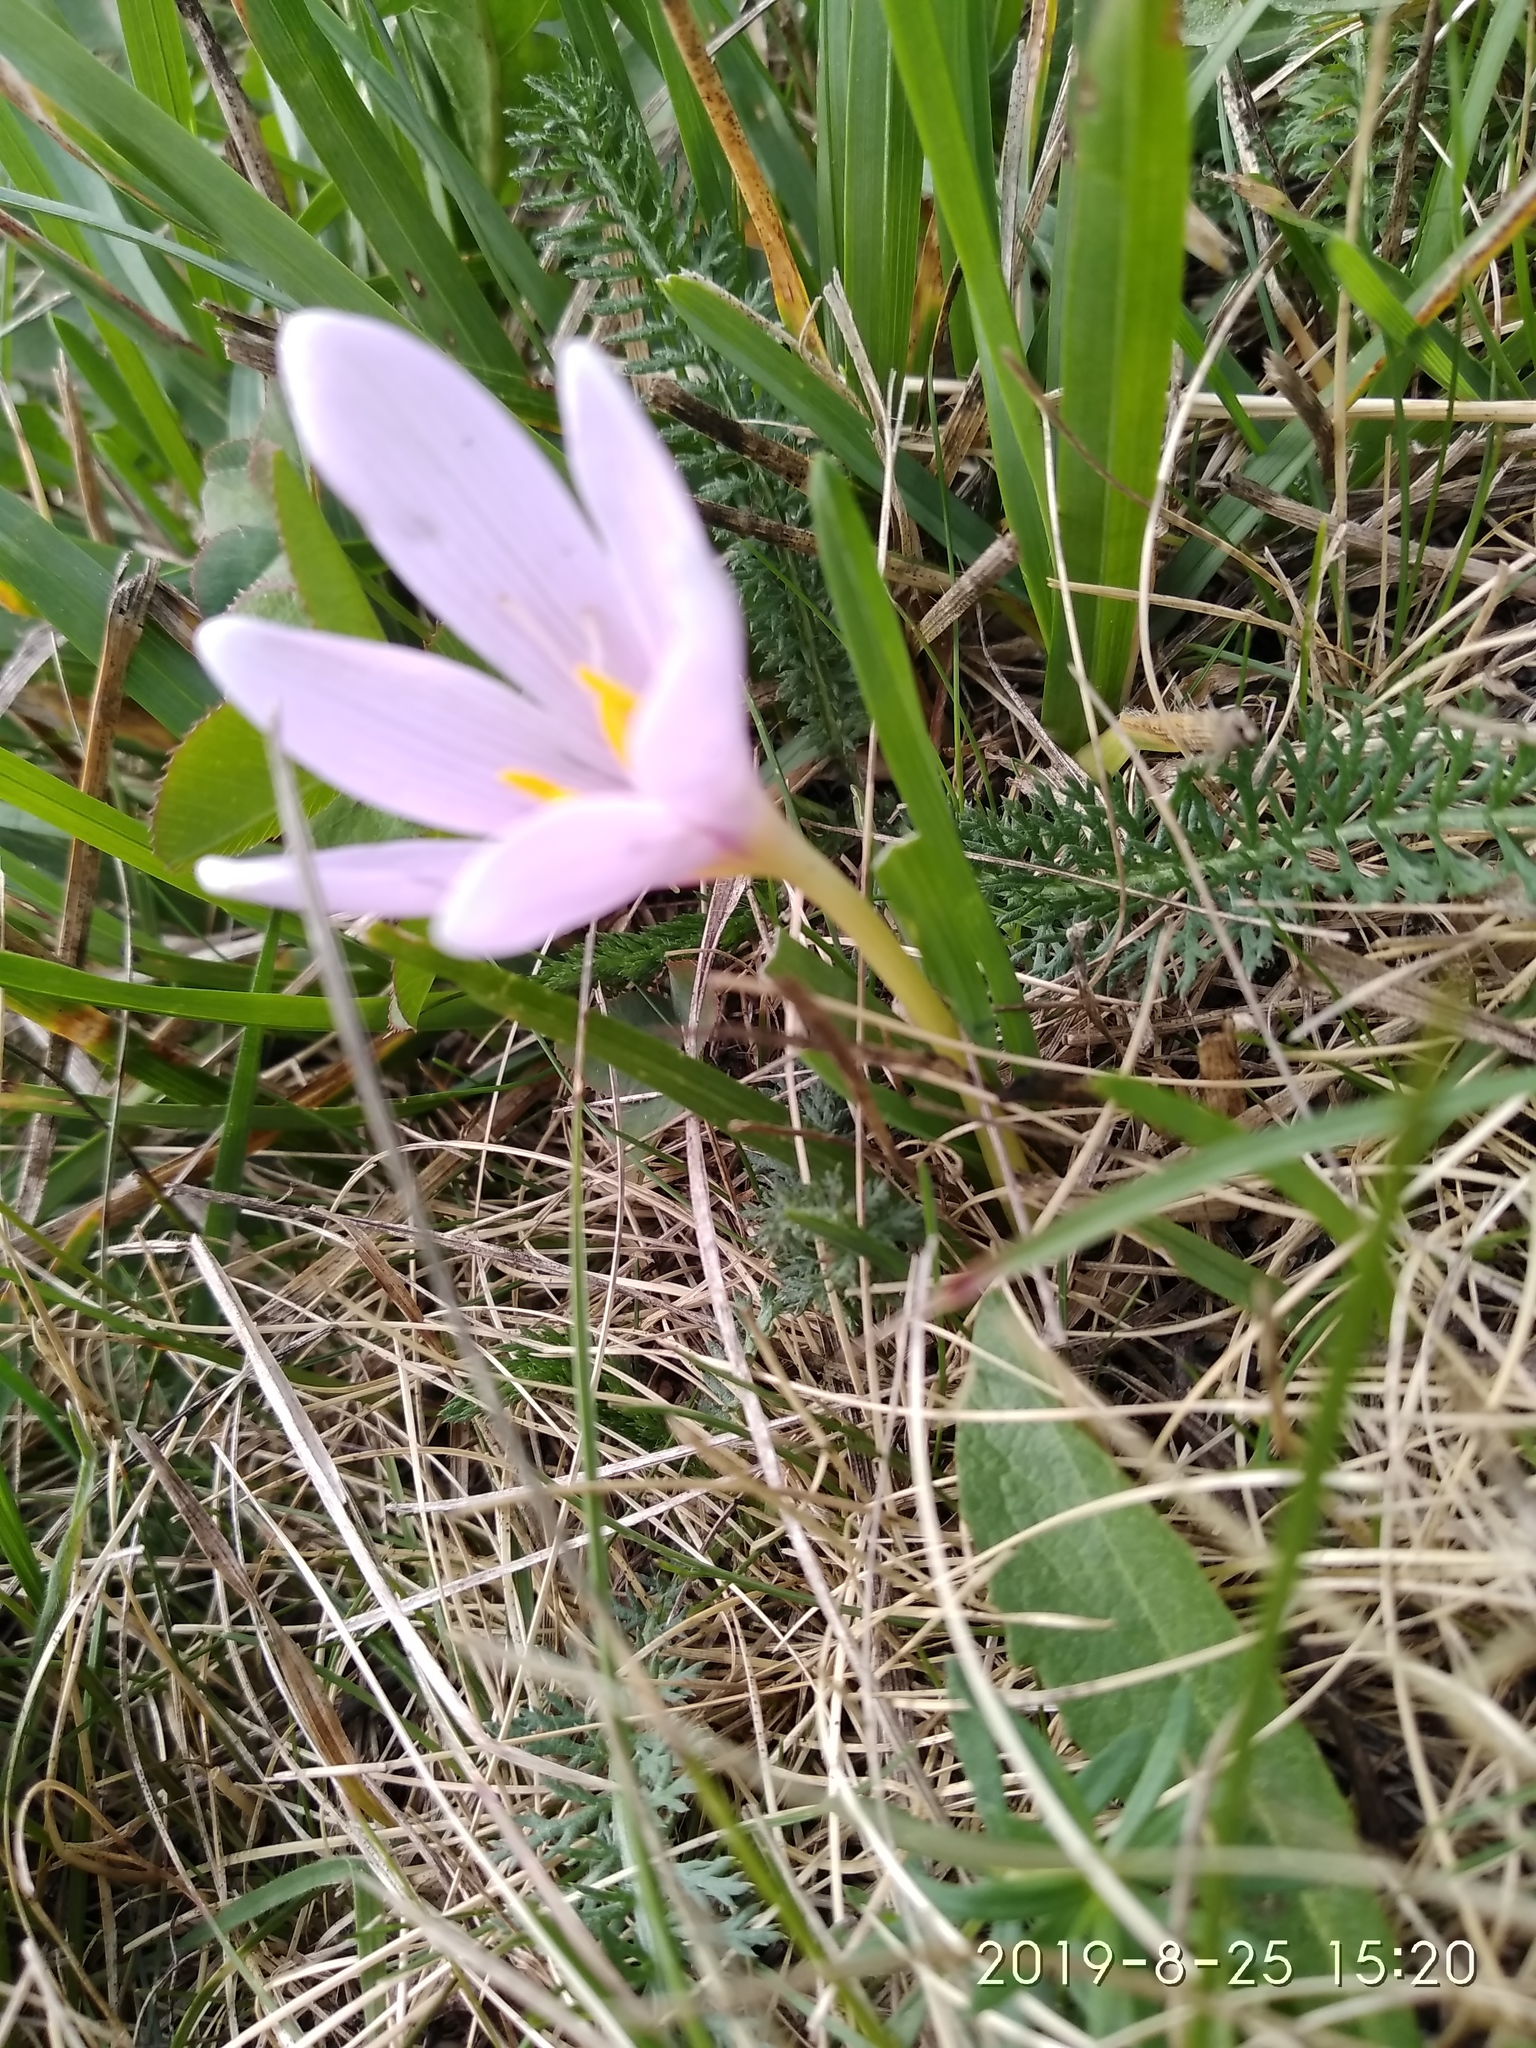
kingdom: Plantae
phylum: Tracheophyta
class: Liliopsida
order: Liliales
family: Colchicaceae
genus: Colchicum
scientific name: Colchicum alpinum
